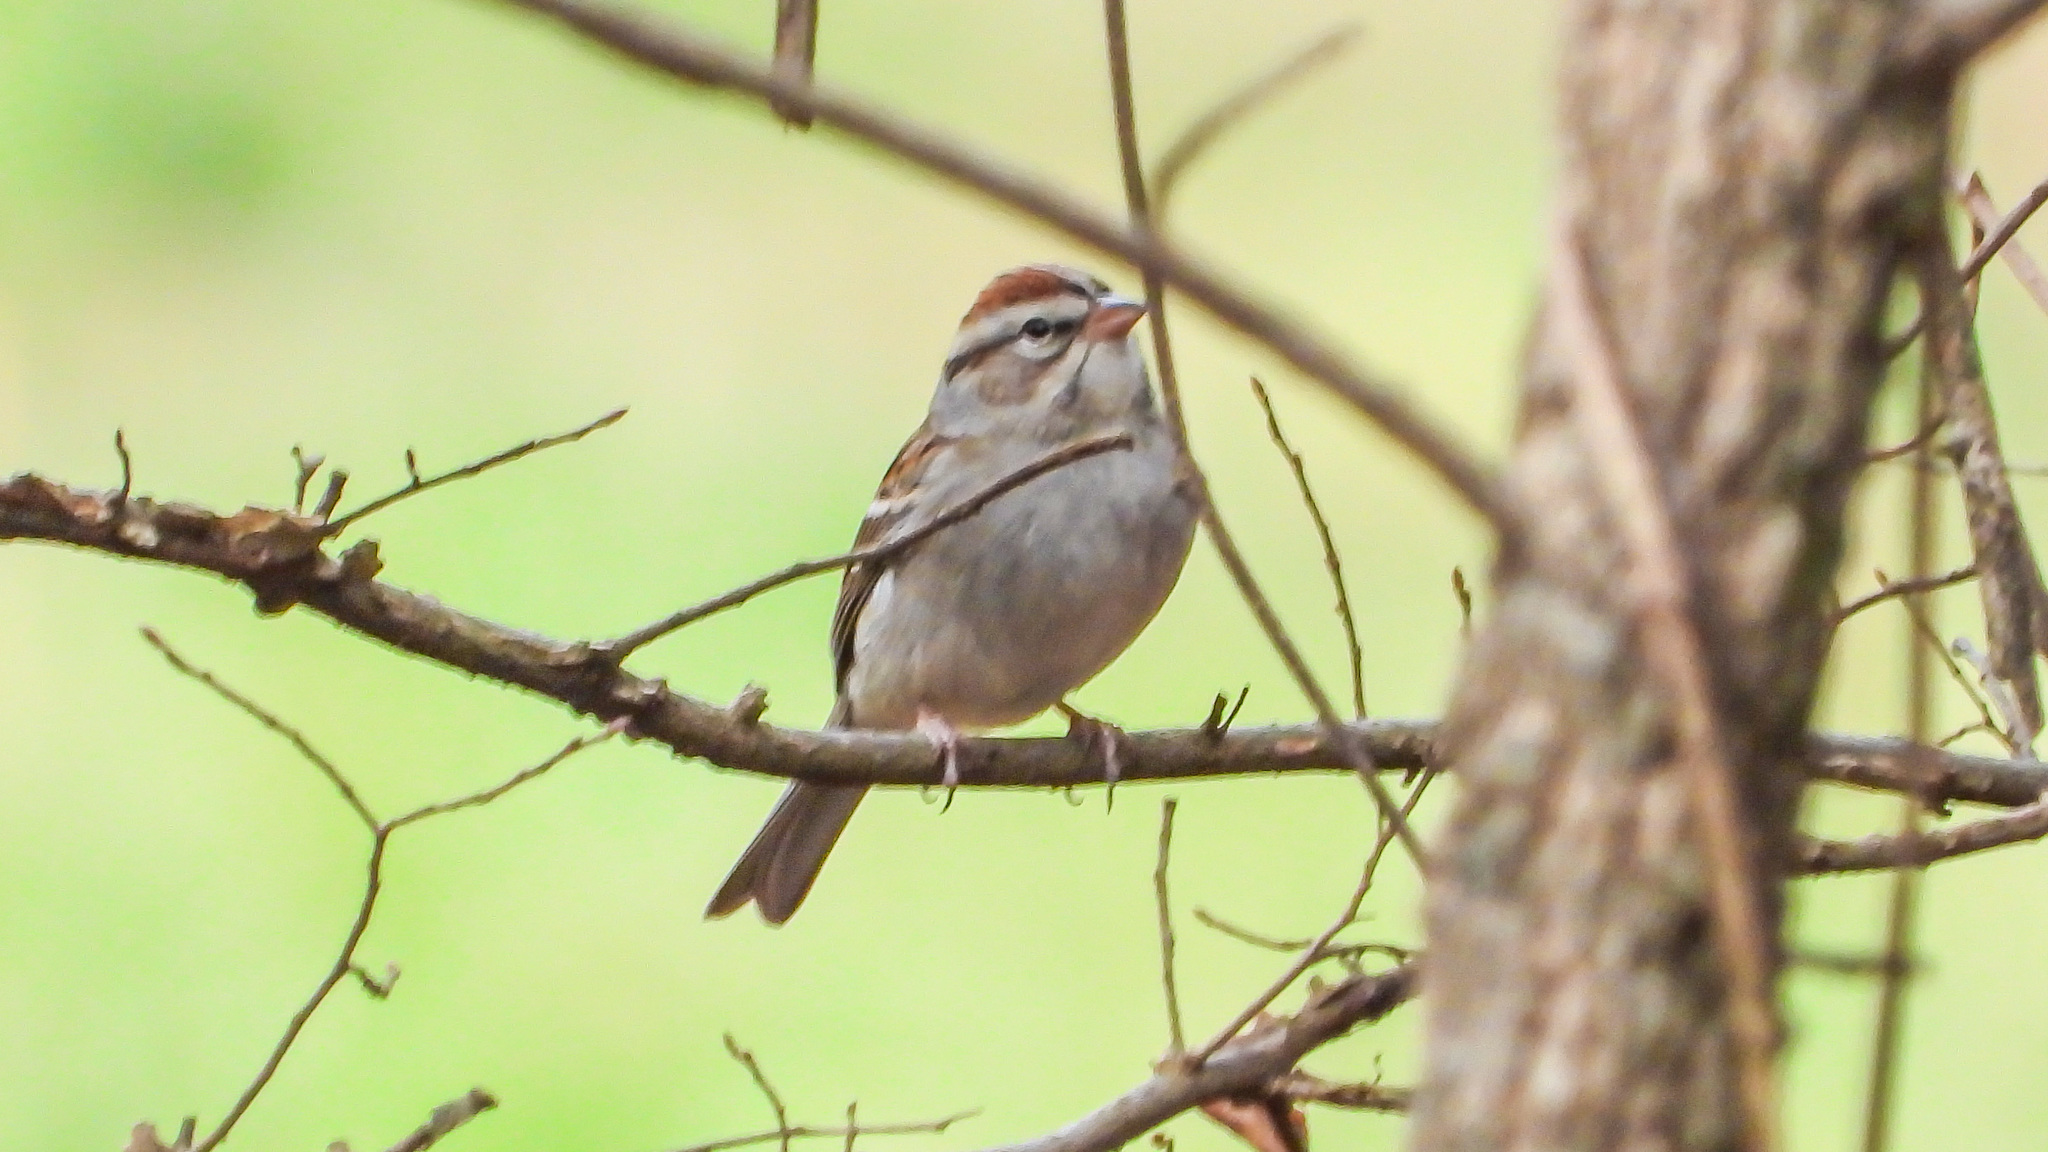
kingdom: Animalia
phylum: Chordata
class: Aves
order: Passeriformes
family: Passerellidae
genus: Spizella
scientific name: Spizella passerina
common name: Chipping sparrow
